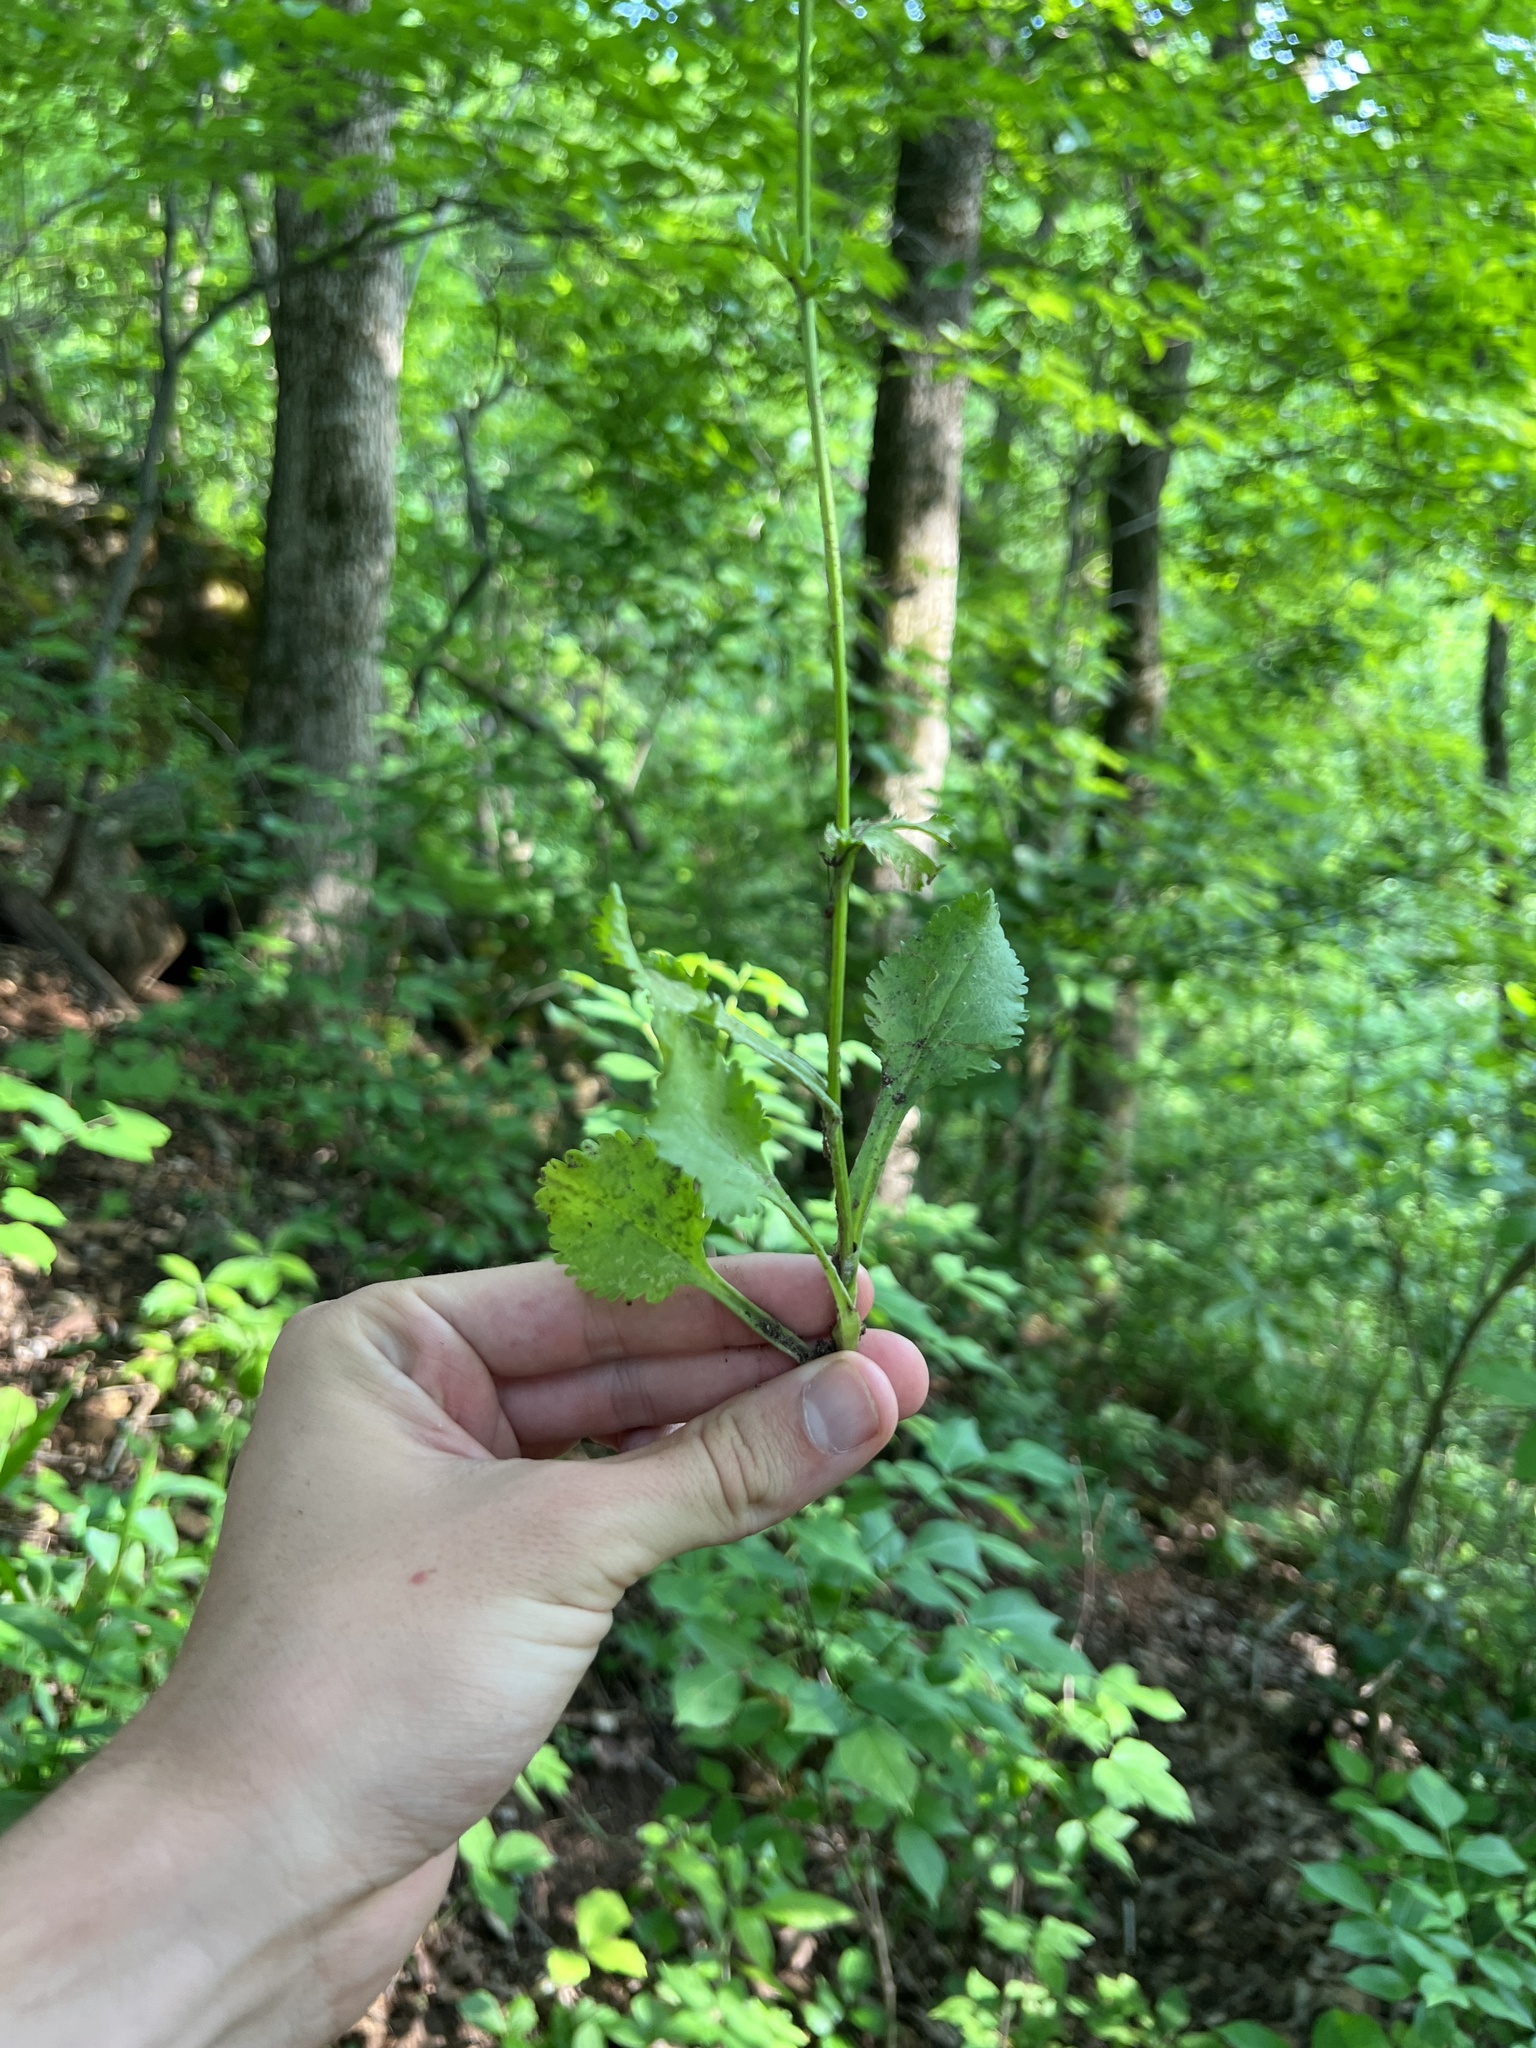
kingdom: Plantae
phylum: Tracheophyta
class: Magnoliopsida
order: Asterales
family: Asteraceae
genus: Packera
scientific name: Packera obovata
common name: Round-leaf ragwort
